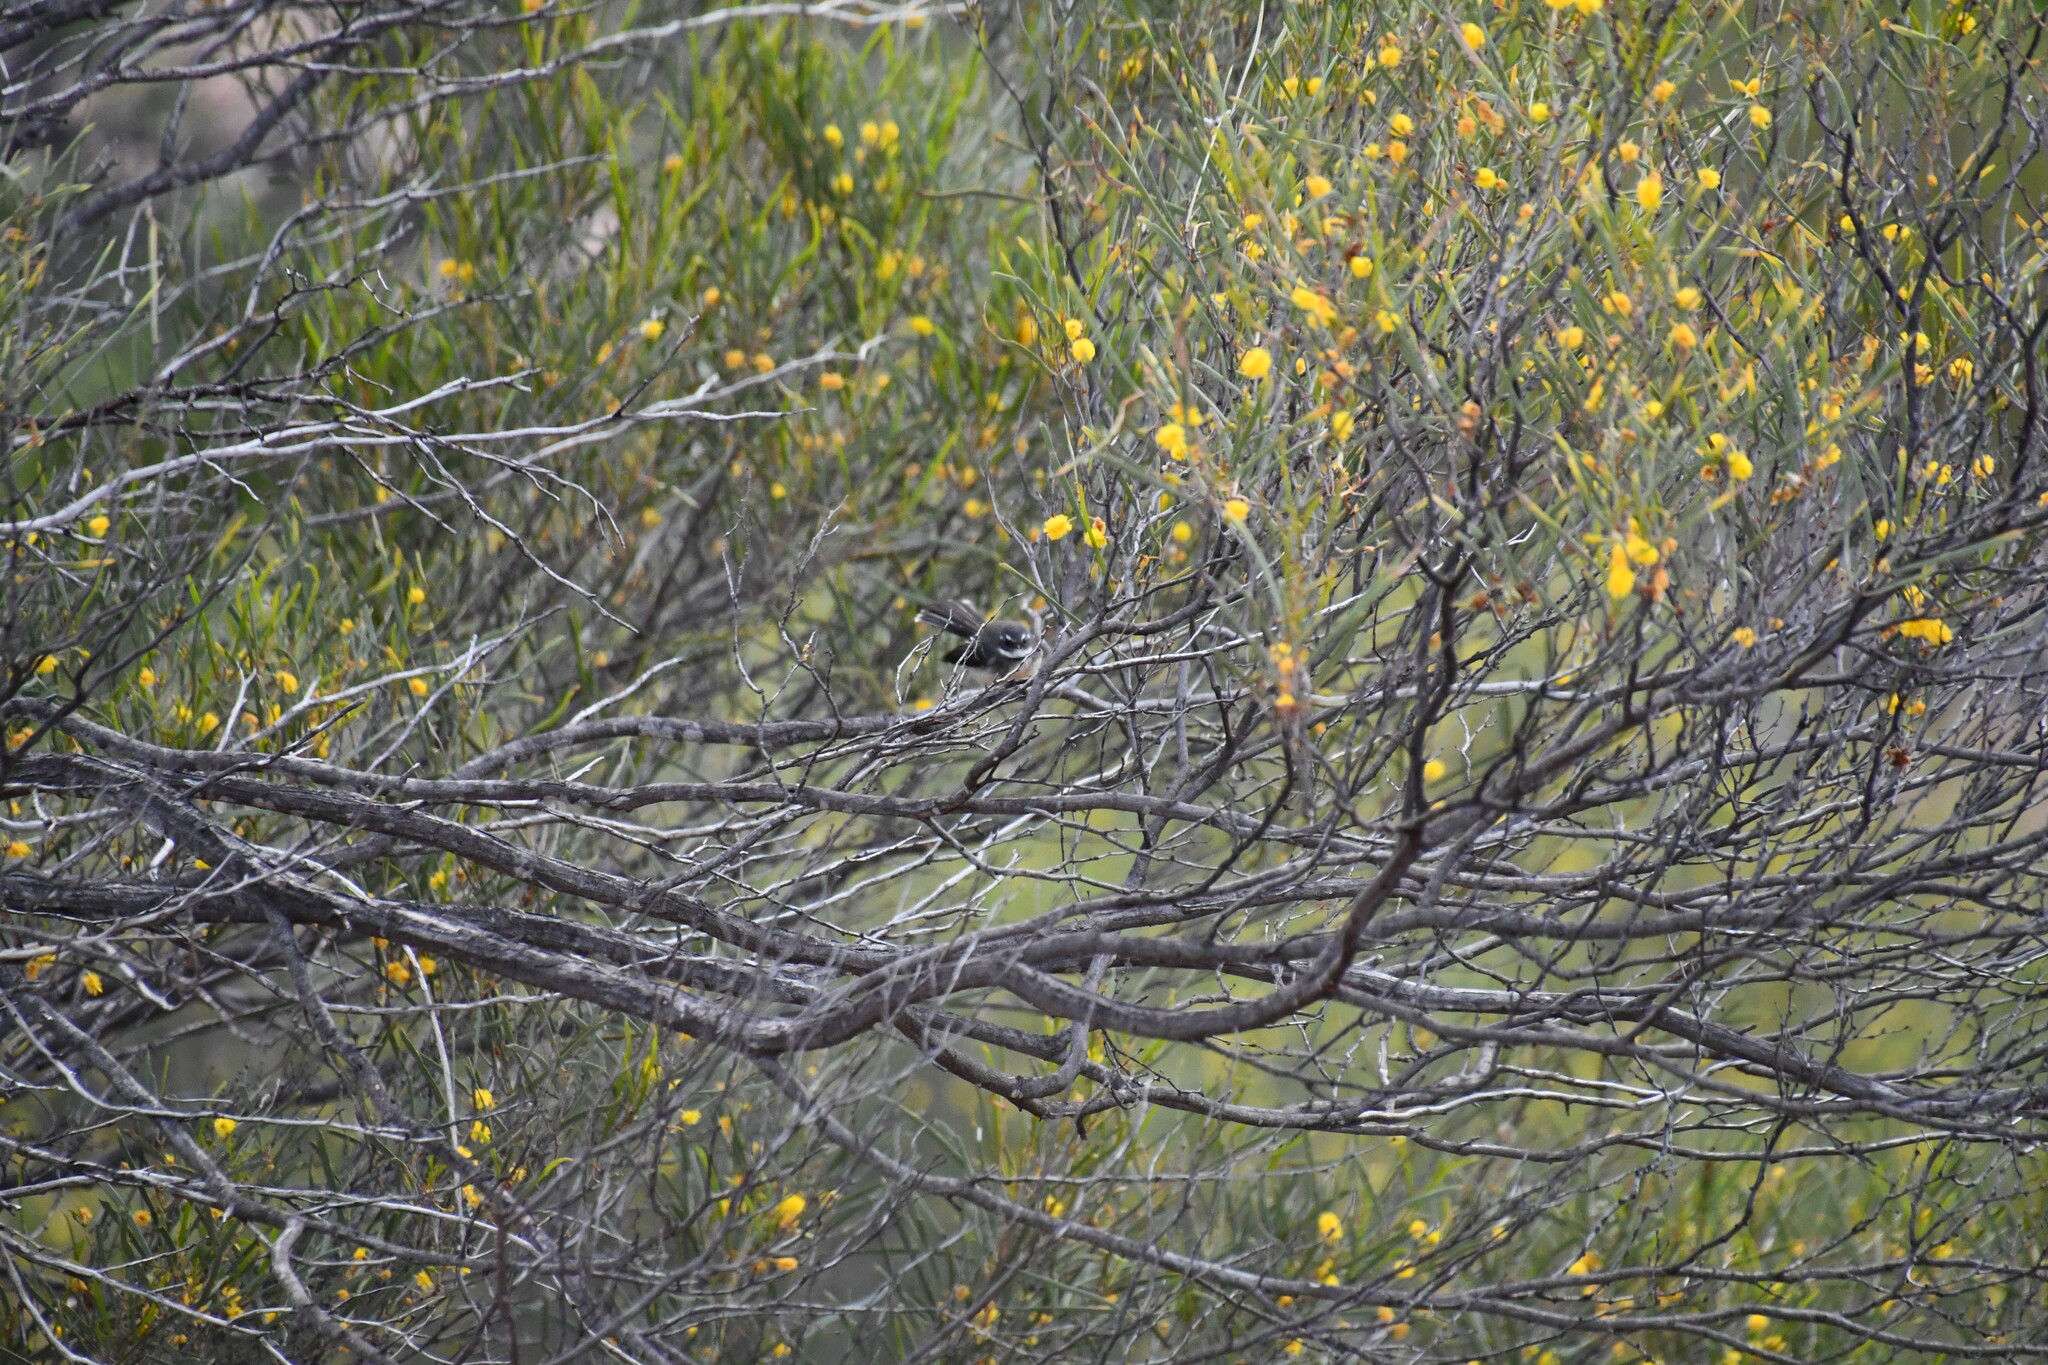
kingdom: Animalia
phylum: Chordata
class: Aves
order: Passeriformes
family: Rhipiduridae
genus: Rhipidura
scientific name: Rhipidura albiscapa
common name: Grey fantail
